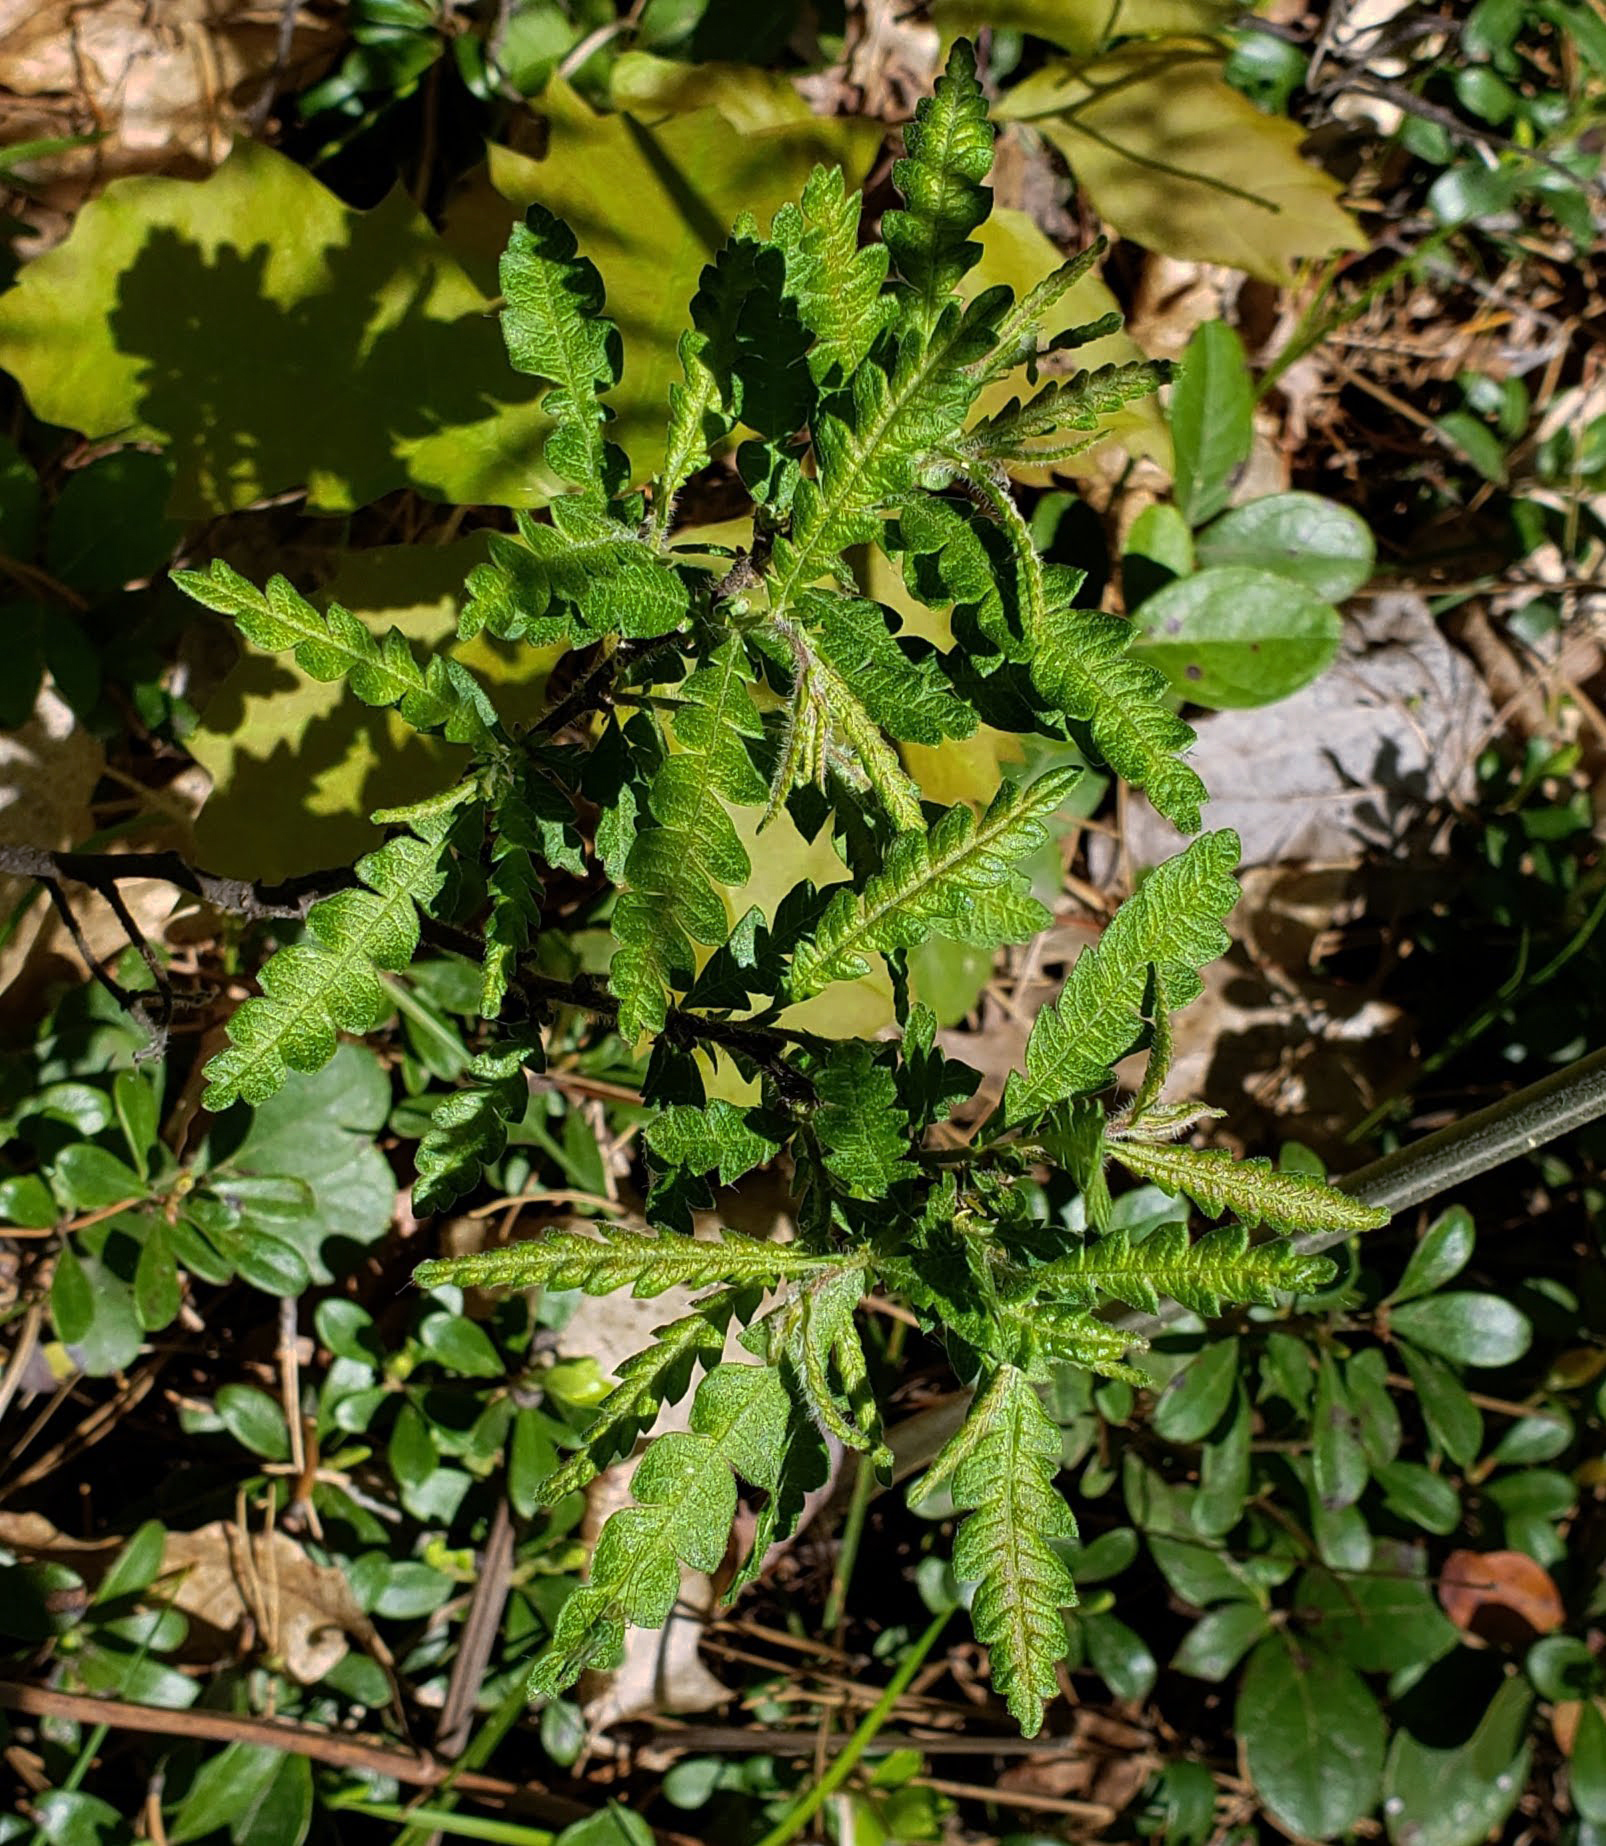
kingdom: Plantae
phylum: Tracheophyta
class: Magnoliopsida
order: Fagales
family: Myricaceae
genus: Comptonia
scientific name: Comptonia peregrina
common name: Sweet-fern
